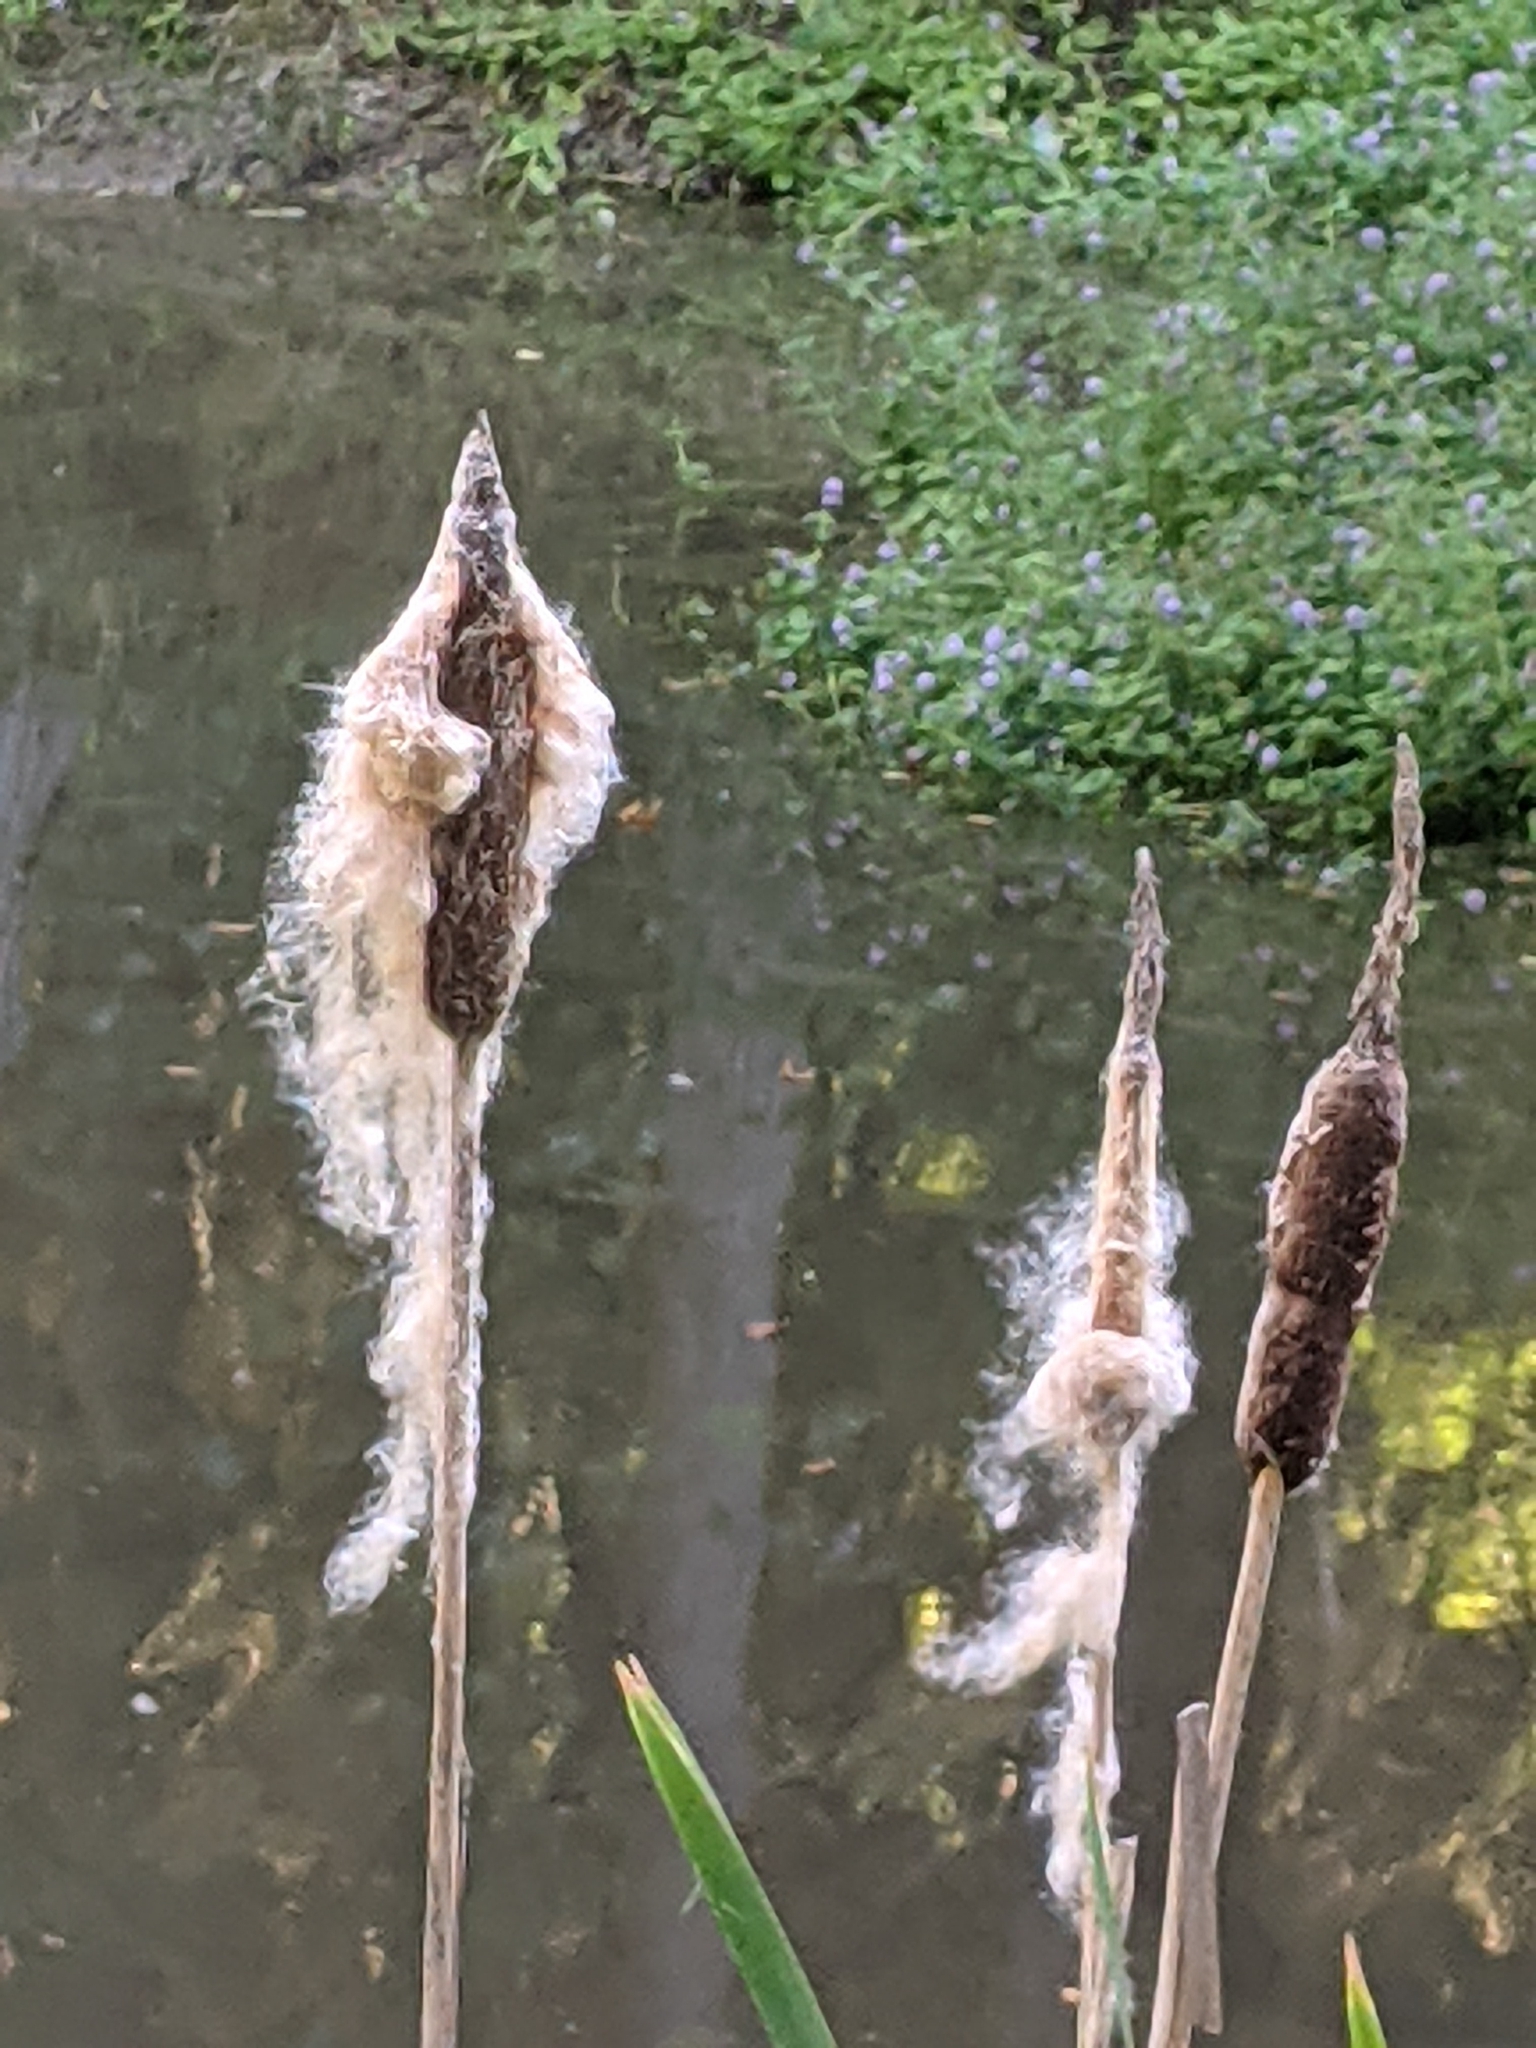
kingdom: Plantae
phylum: Tracheophyta
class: Liliopsida
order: Poales
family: Typhaceae
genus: Typha
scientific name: Typha latifolia
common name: Broadleaf cattail
